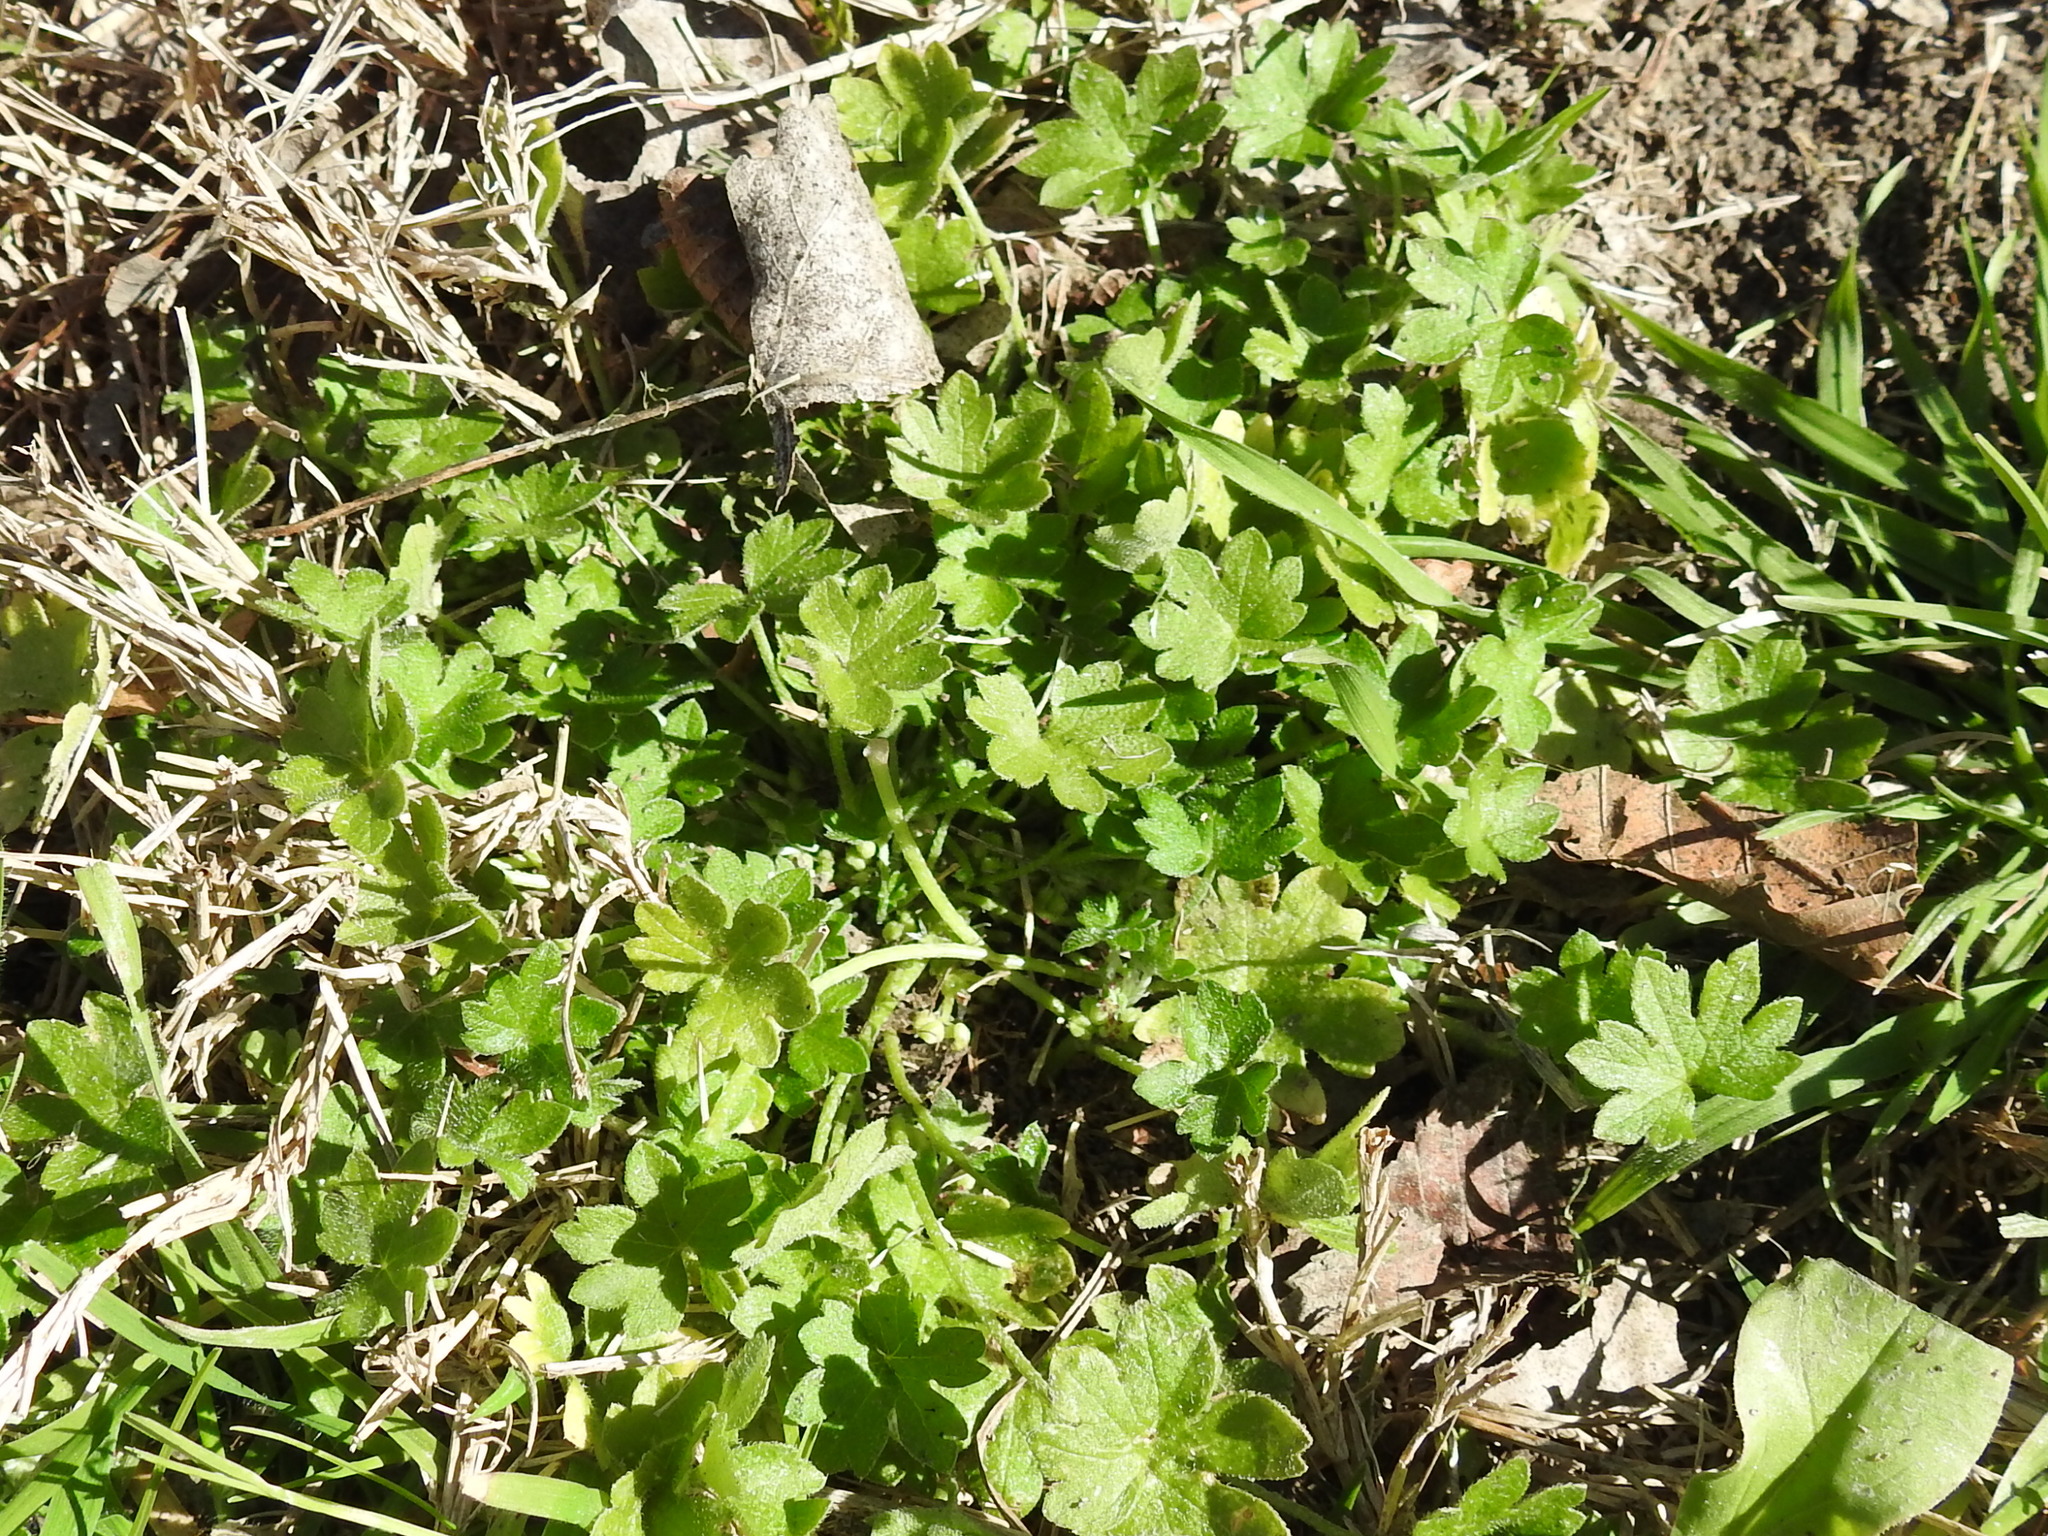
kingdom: Plantae
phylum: Tracheophyta
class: Magnoliopsida
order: Apiales
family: Apiaceae
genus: Bowlesia
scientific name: Bowlesia incana
